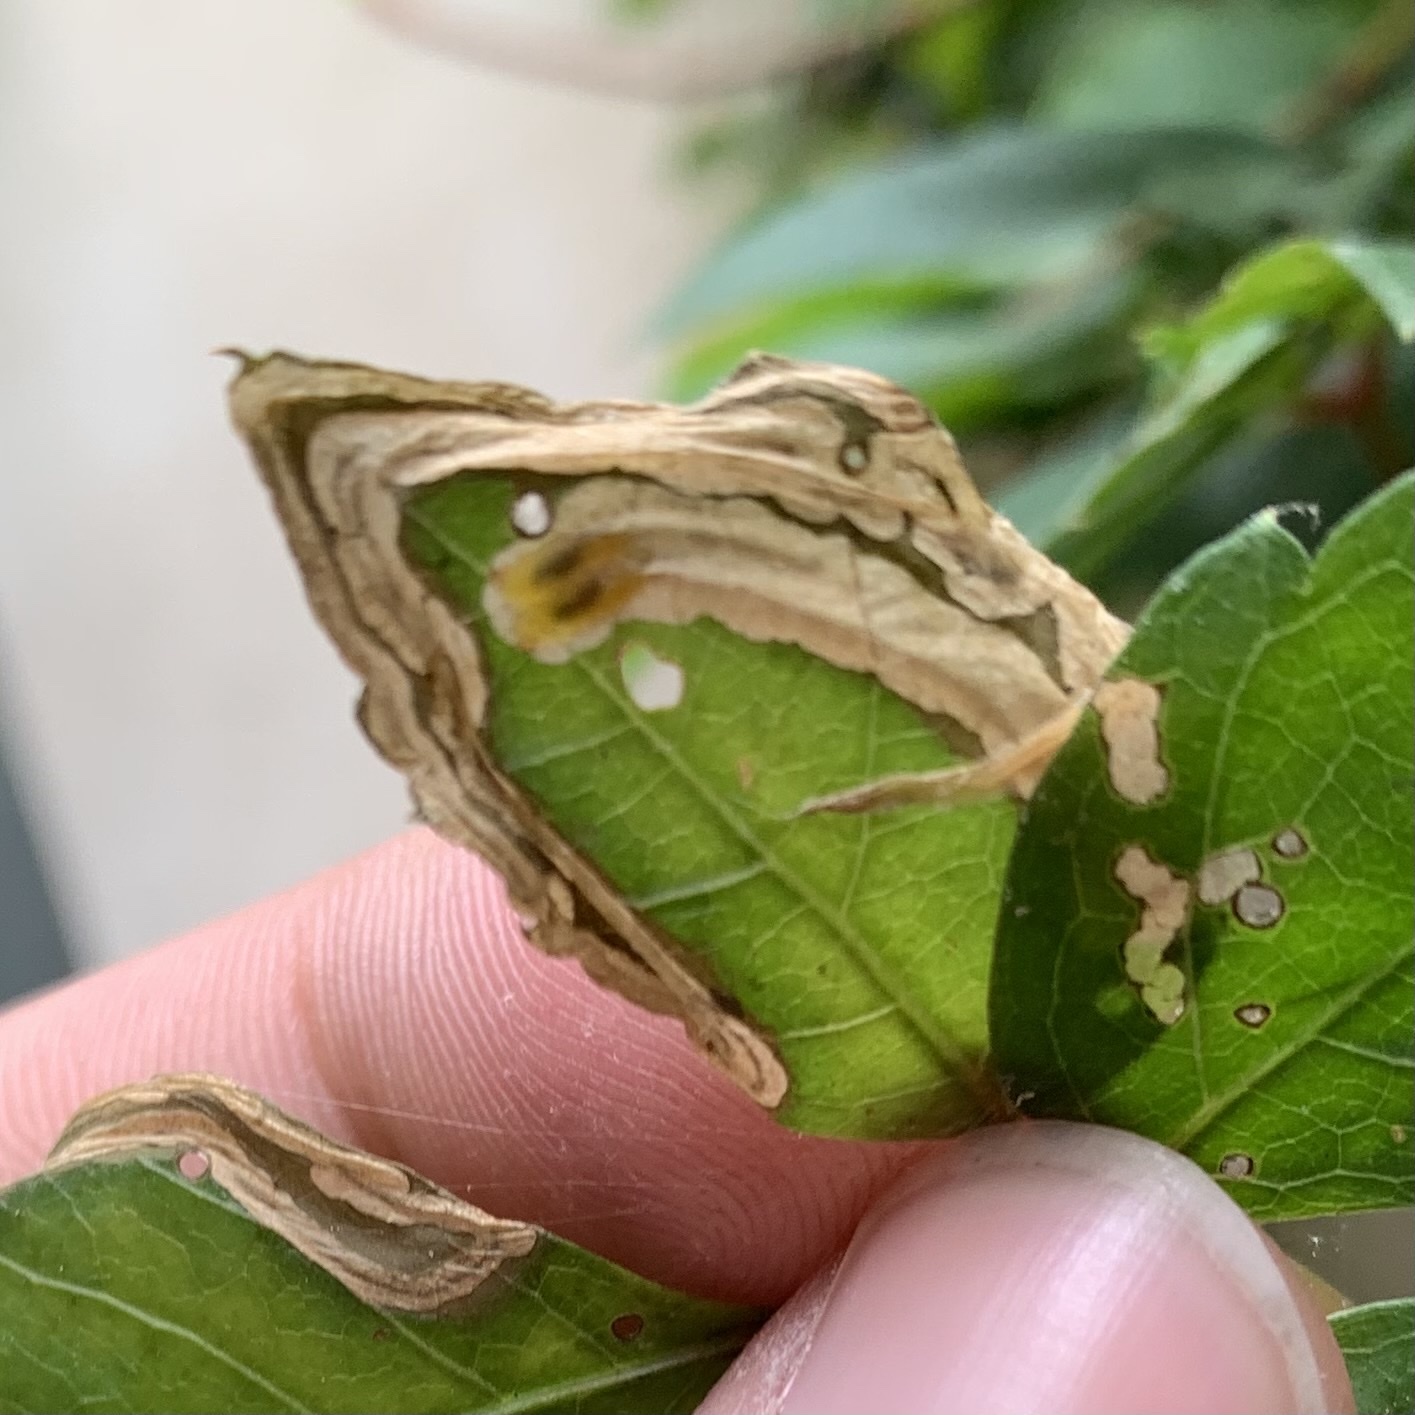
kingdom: Animalia
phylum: Arthropoda
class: Insecta
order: Coleoptera
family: Curculionidae
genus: Orchestomerus
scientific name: Orchestomerus eisemani
